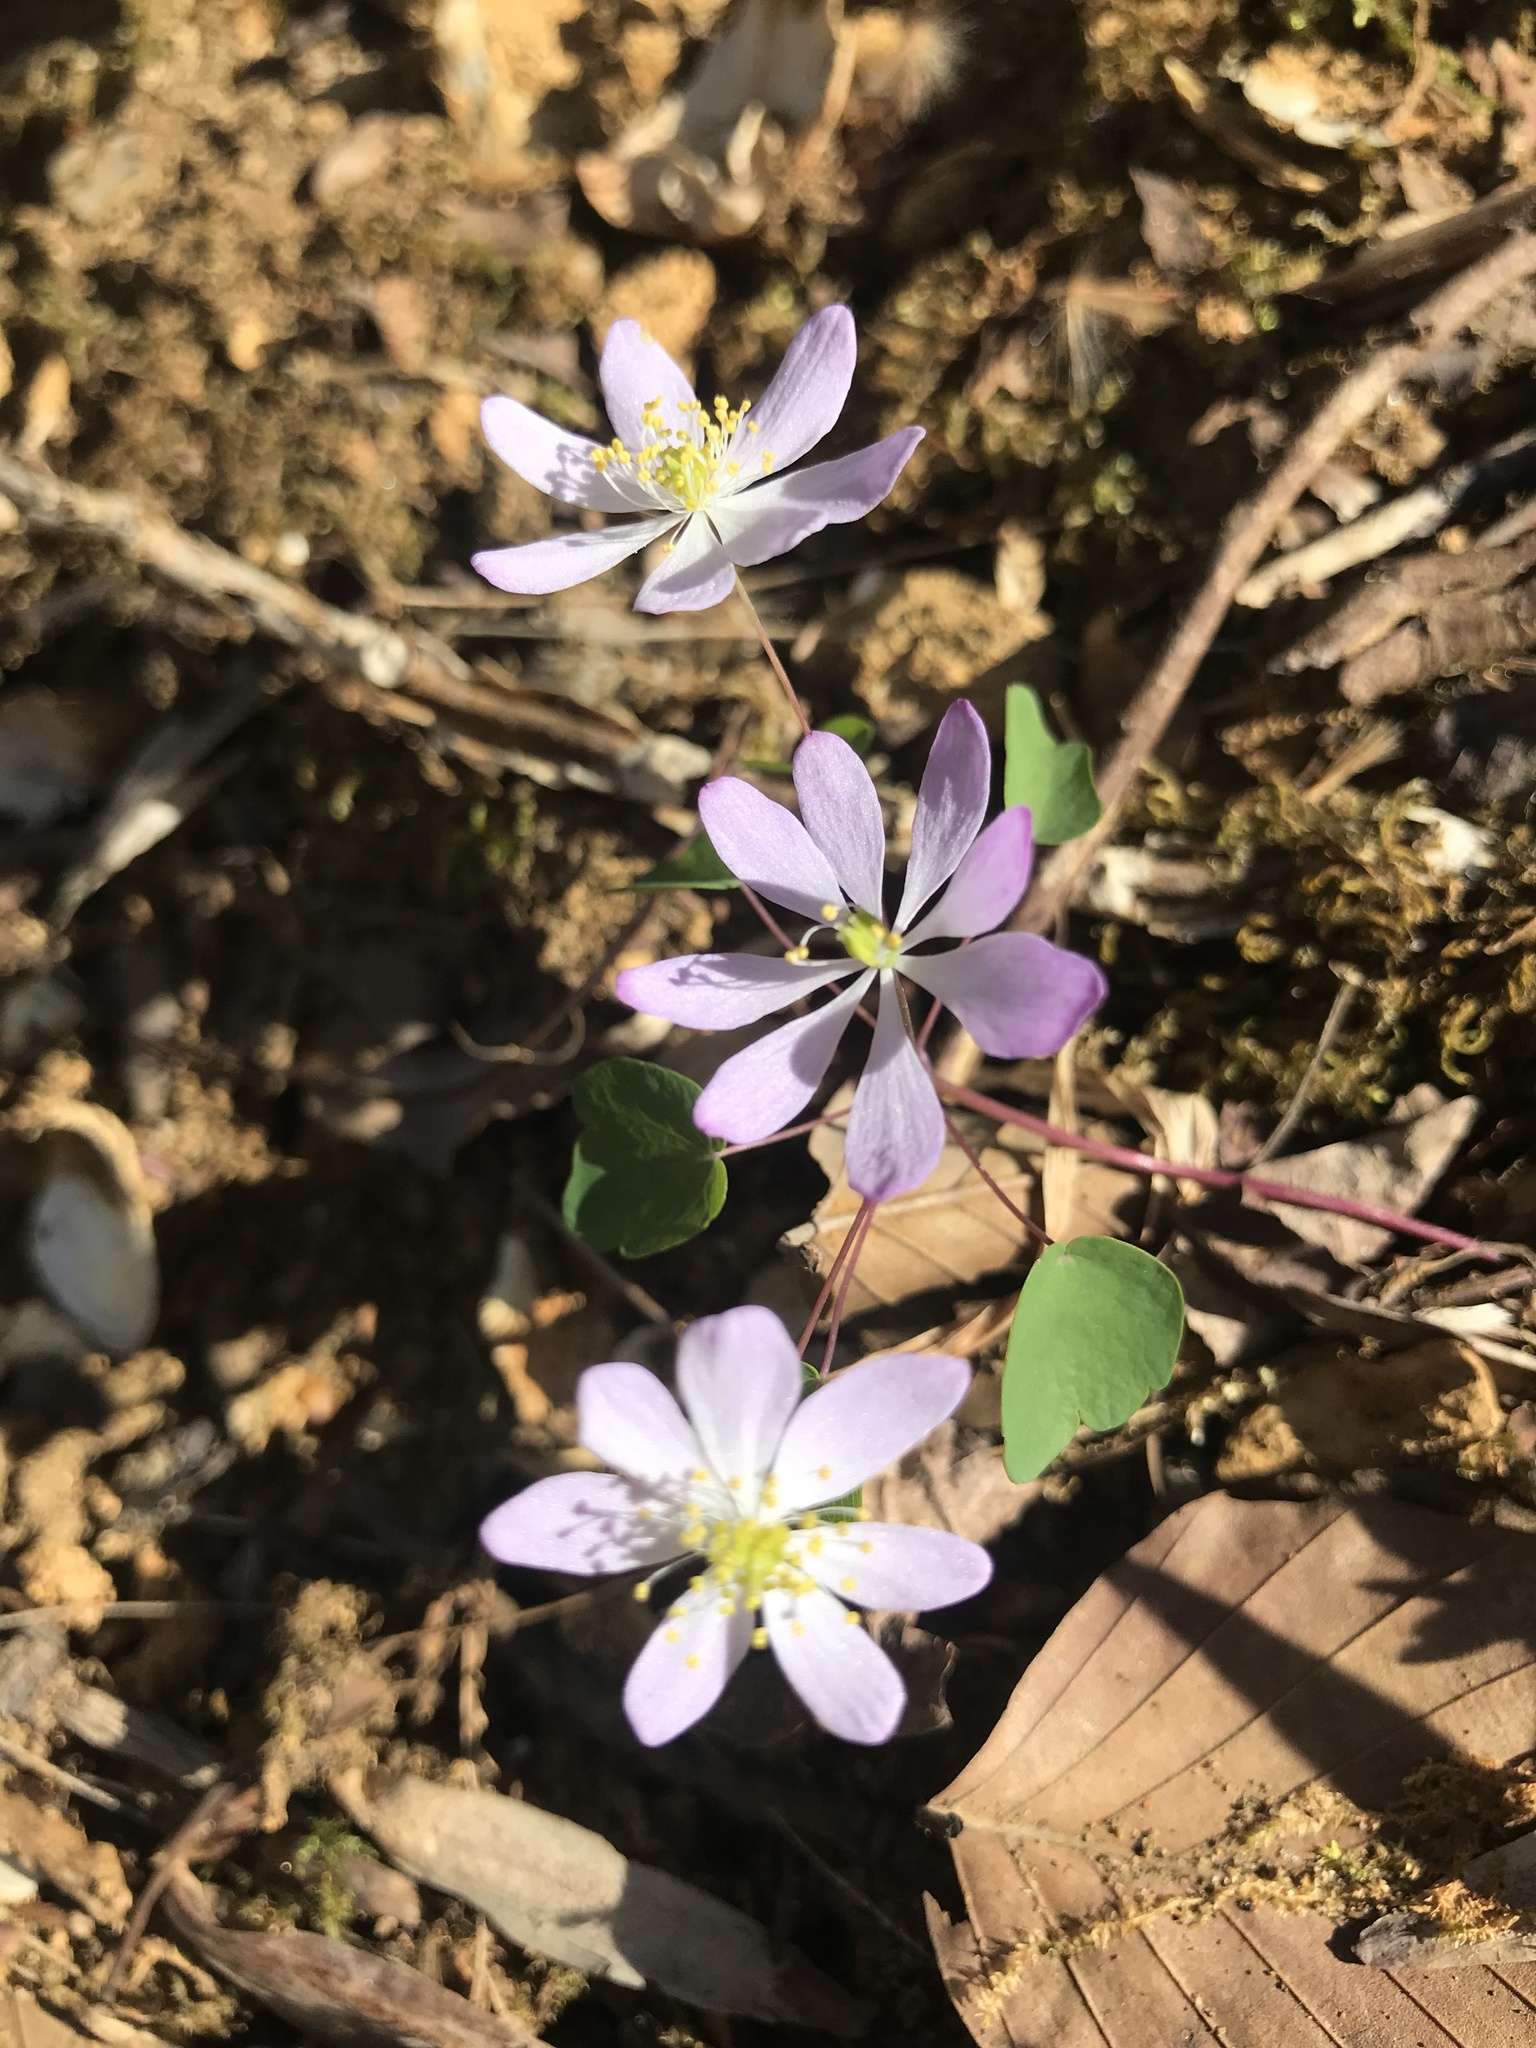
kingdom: Plantae
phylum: Tracheophyta
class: Magnoliopsida
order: Ranunculales
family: Ranunculaceae
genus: Thalictrum
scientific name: Thalictrum thalictroides
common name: Rue-anemone
